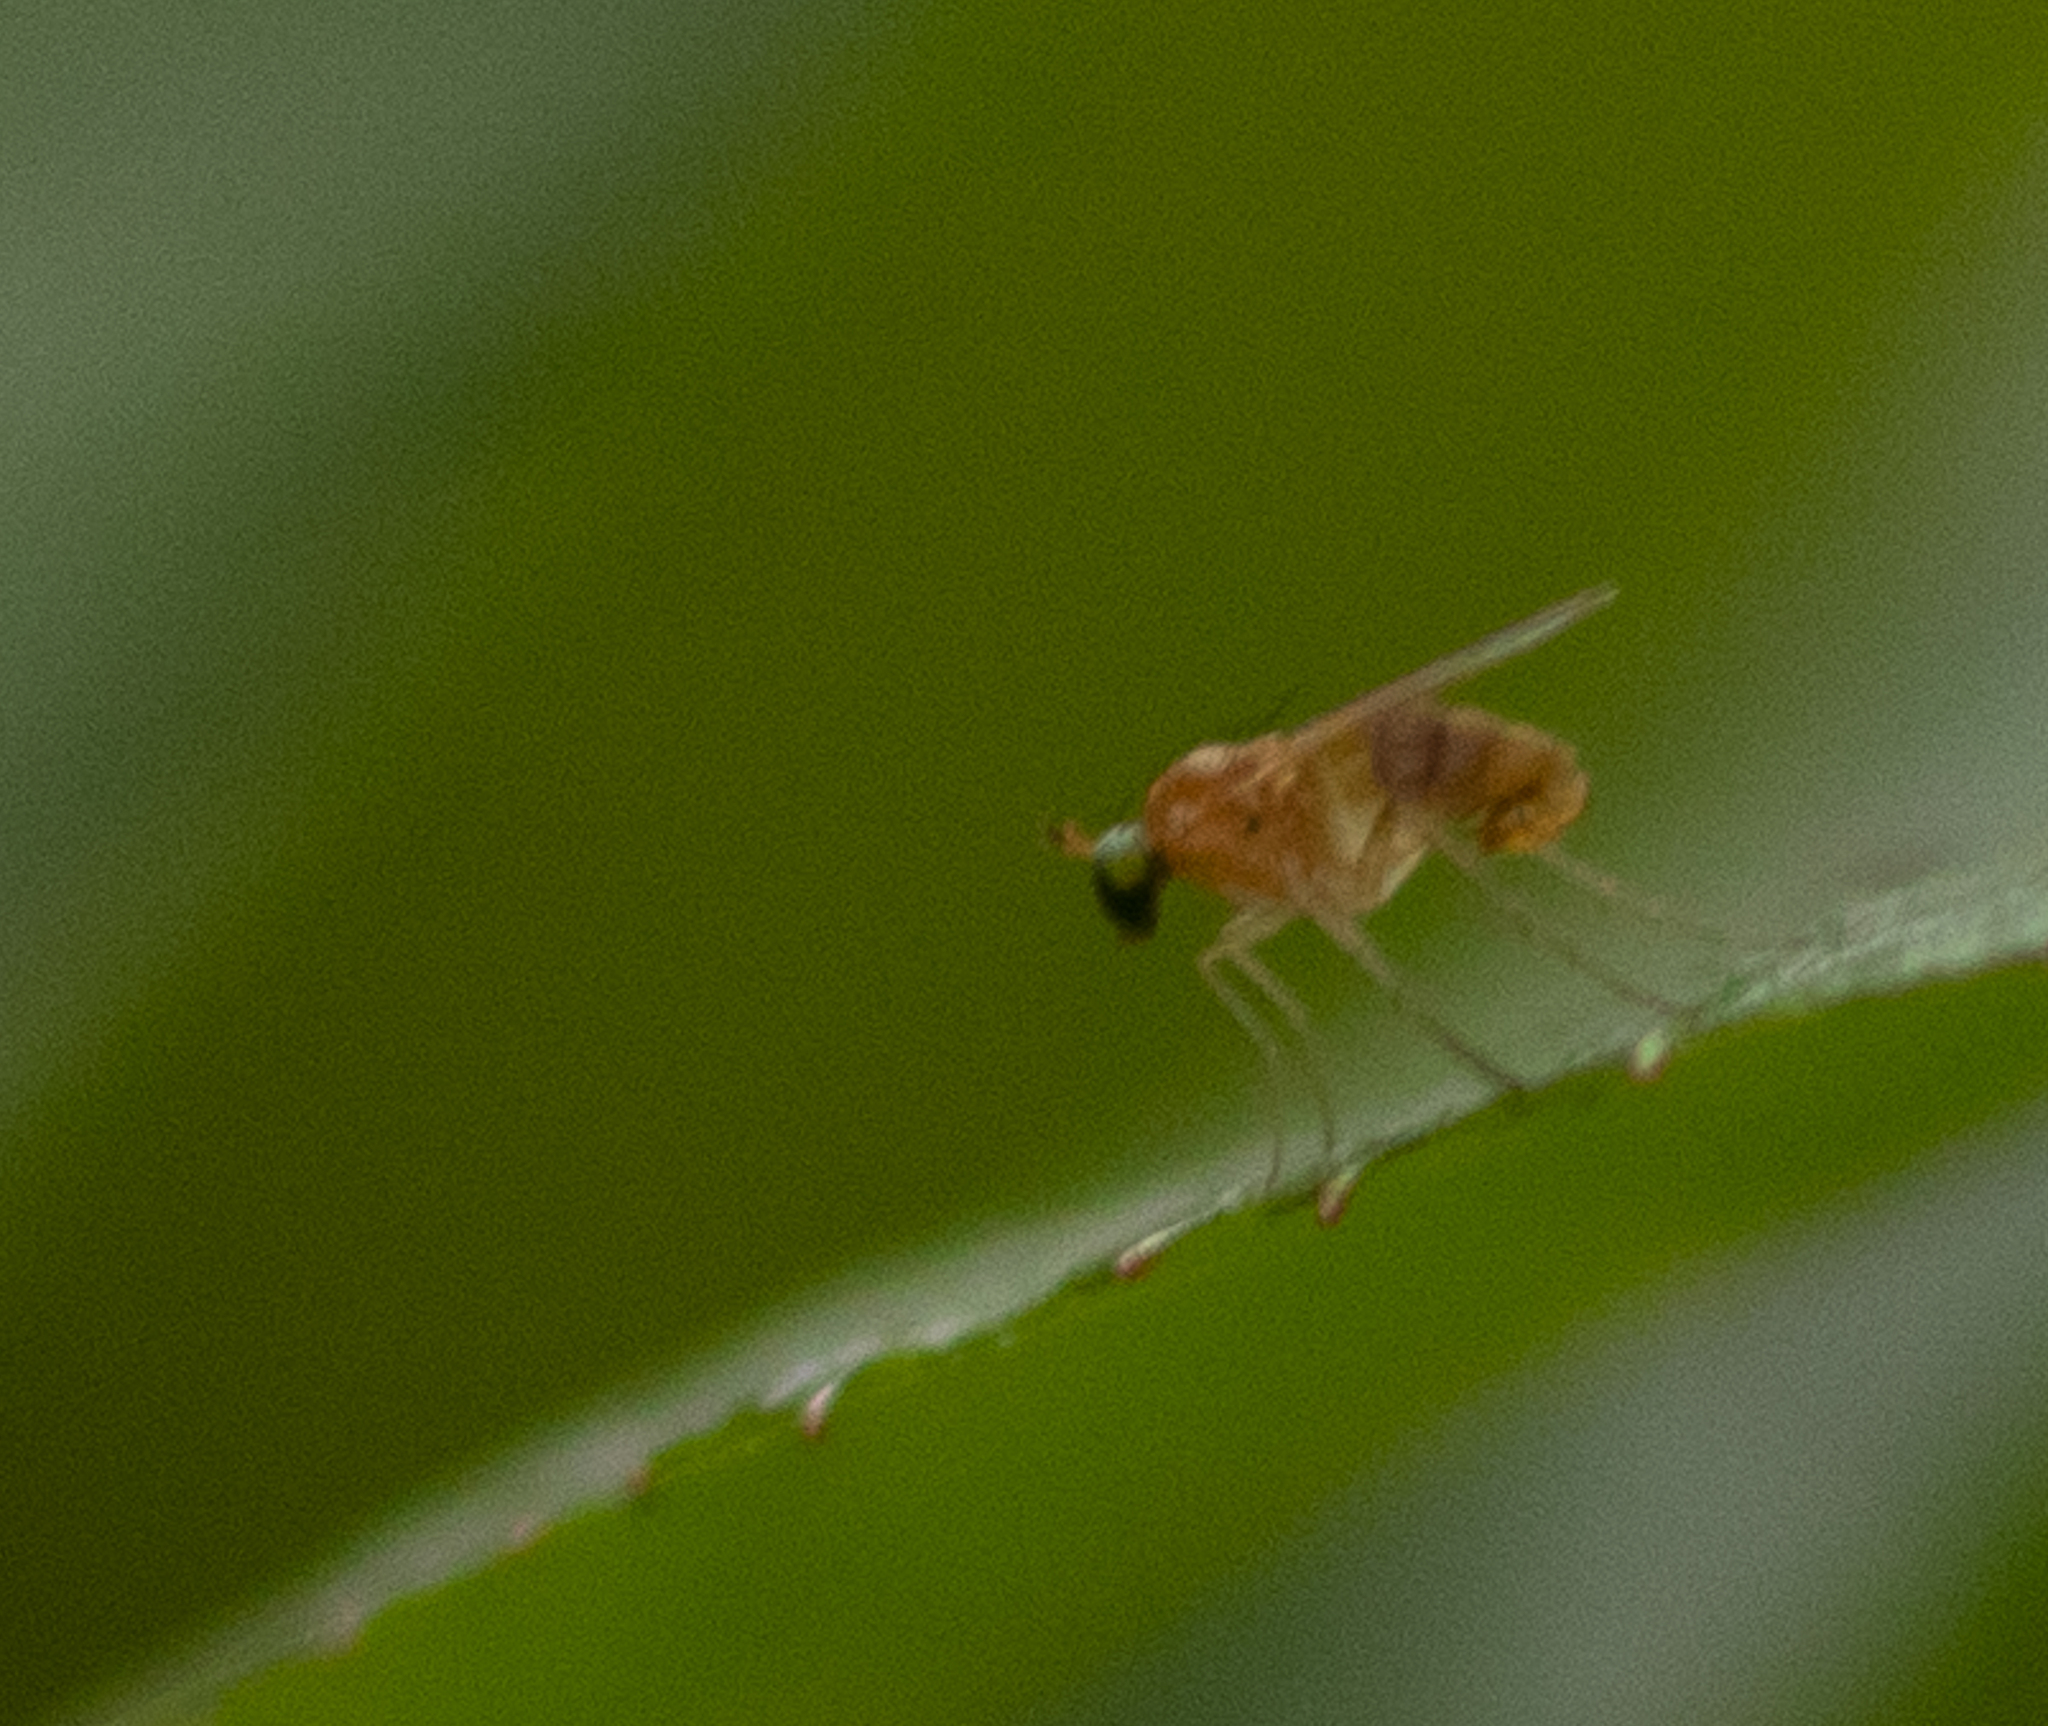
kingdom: Animalia
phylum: Arthropoda
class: Insecta
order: Diptera
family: Dolichopodidae
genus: Gymnopternus
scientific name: Gymnopternus flavus
